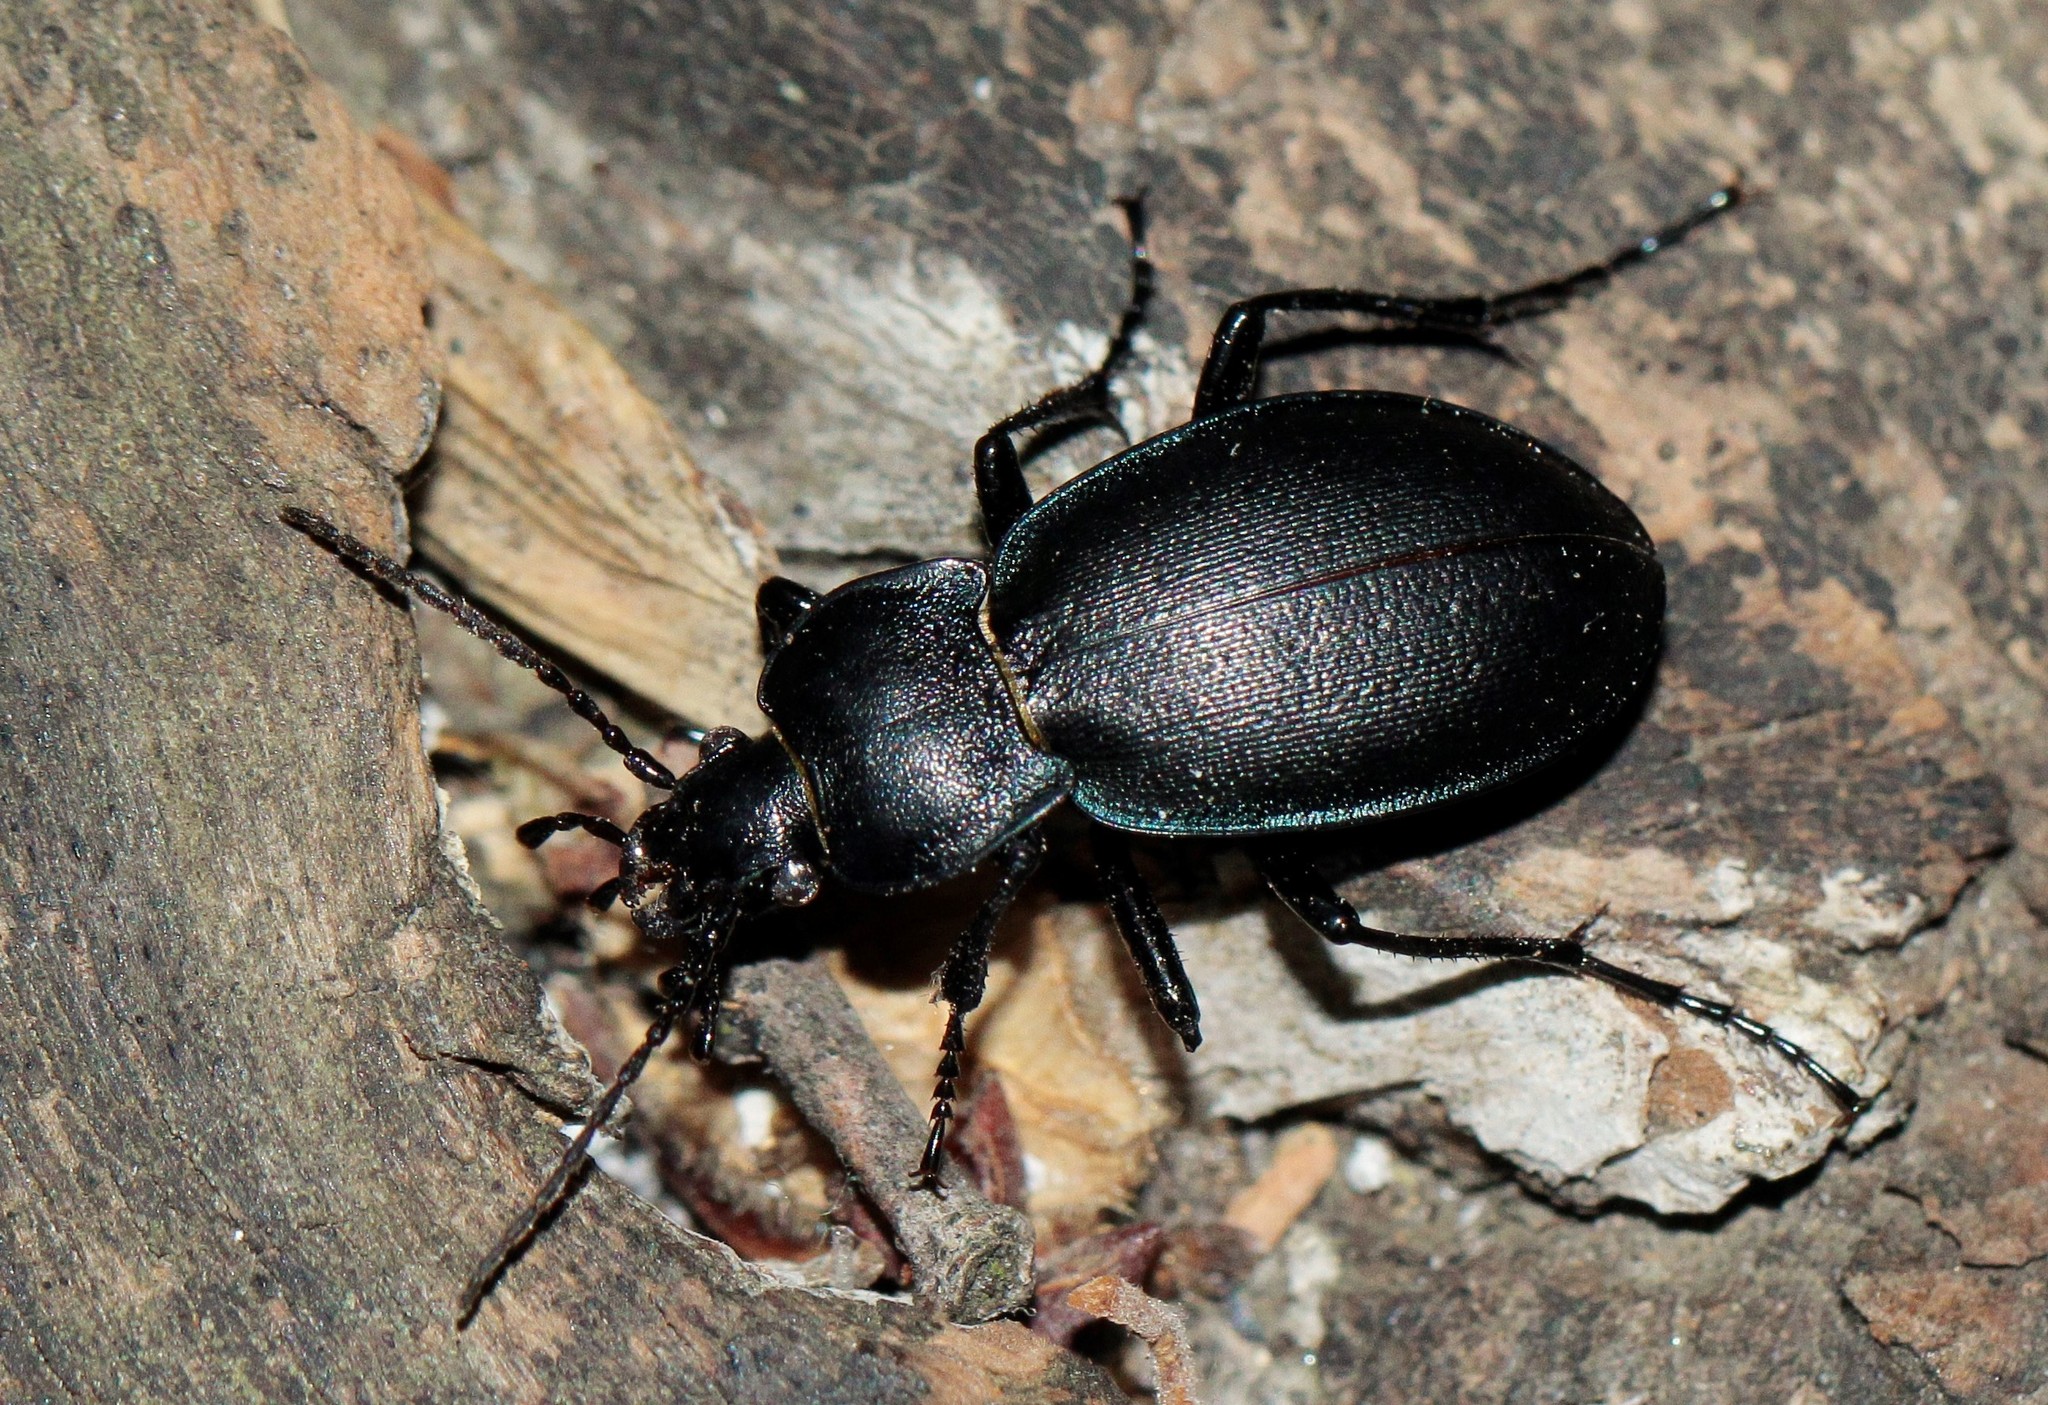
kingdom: Animalia
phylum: Arthropoda
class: Insecta
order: Coleoptera
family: Carabidae
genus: Carabus
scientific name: Carabus convexus
